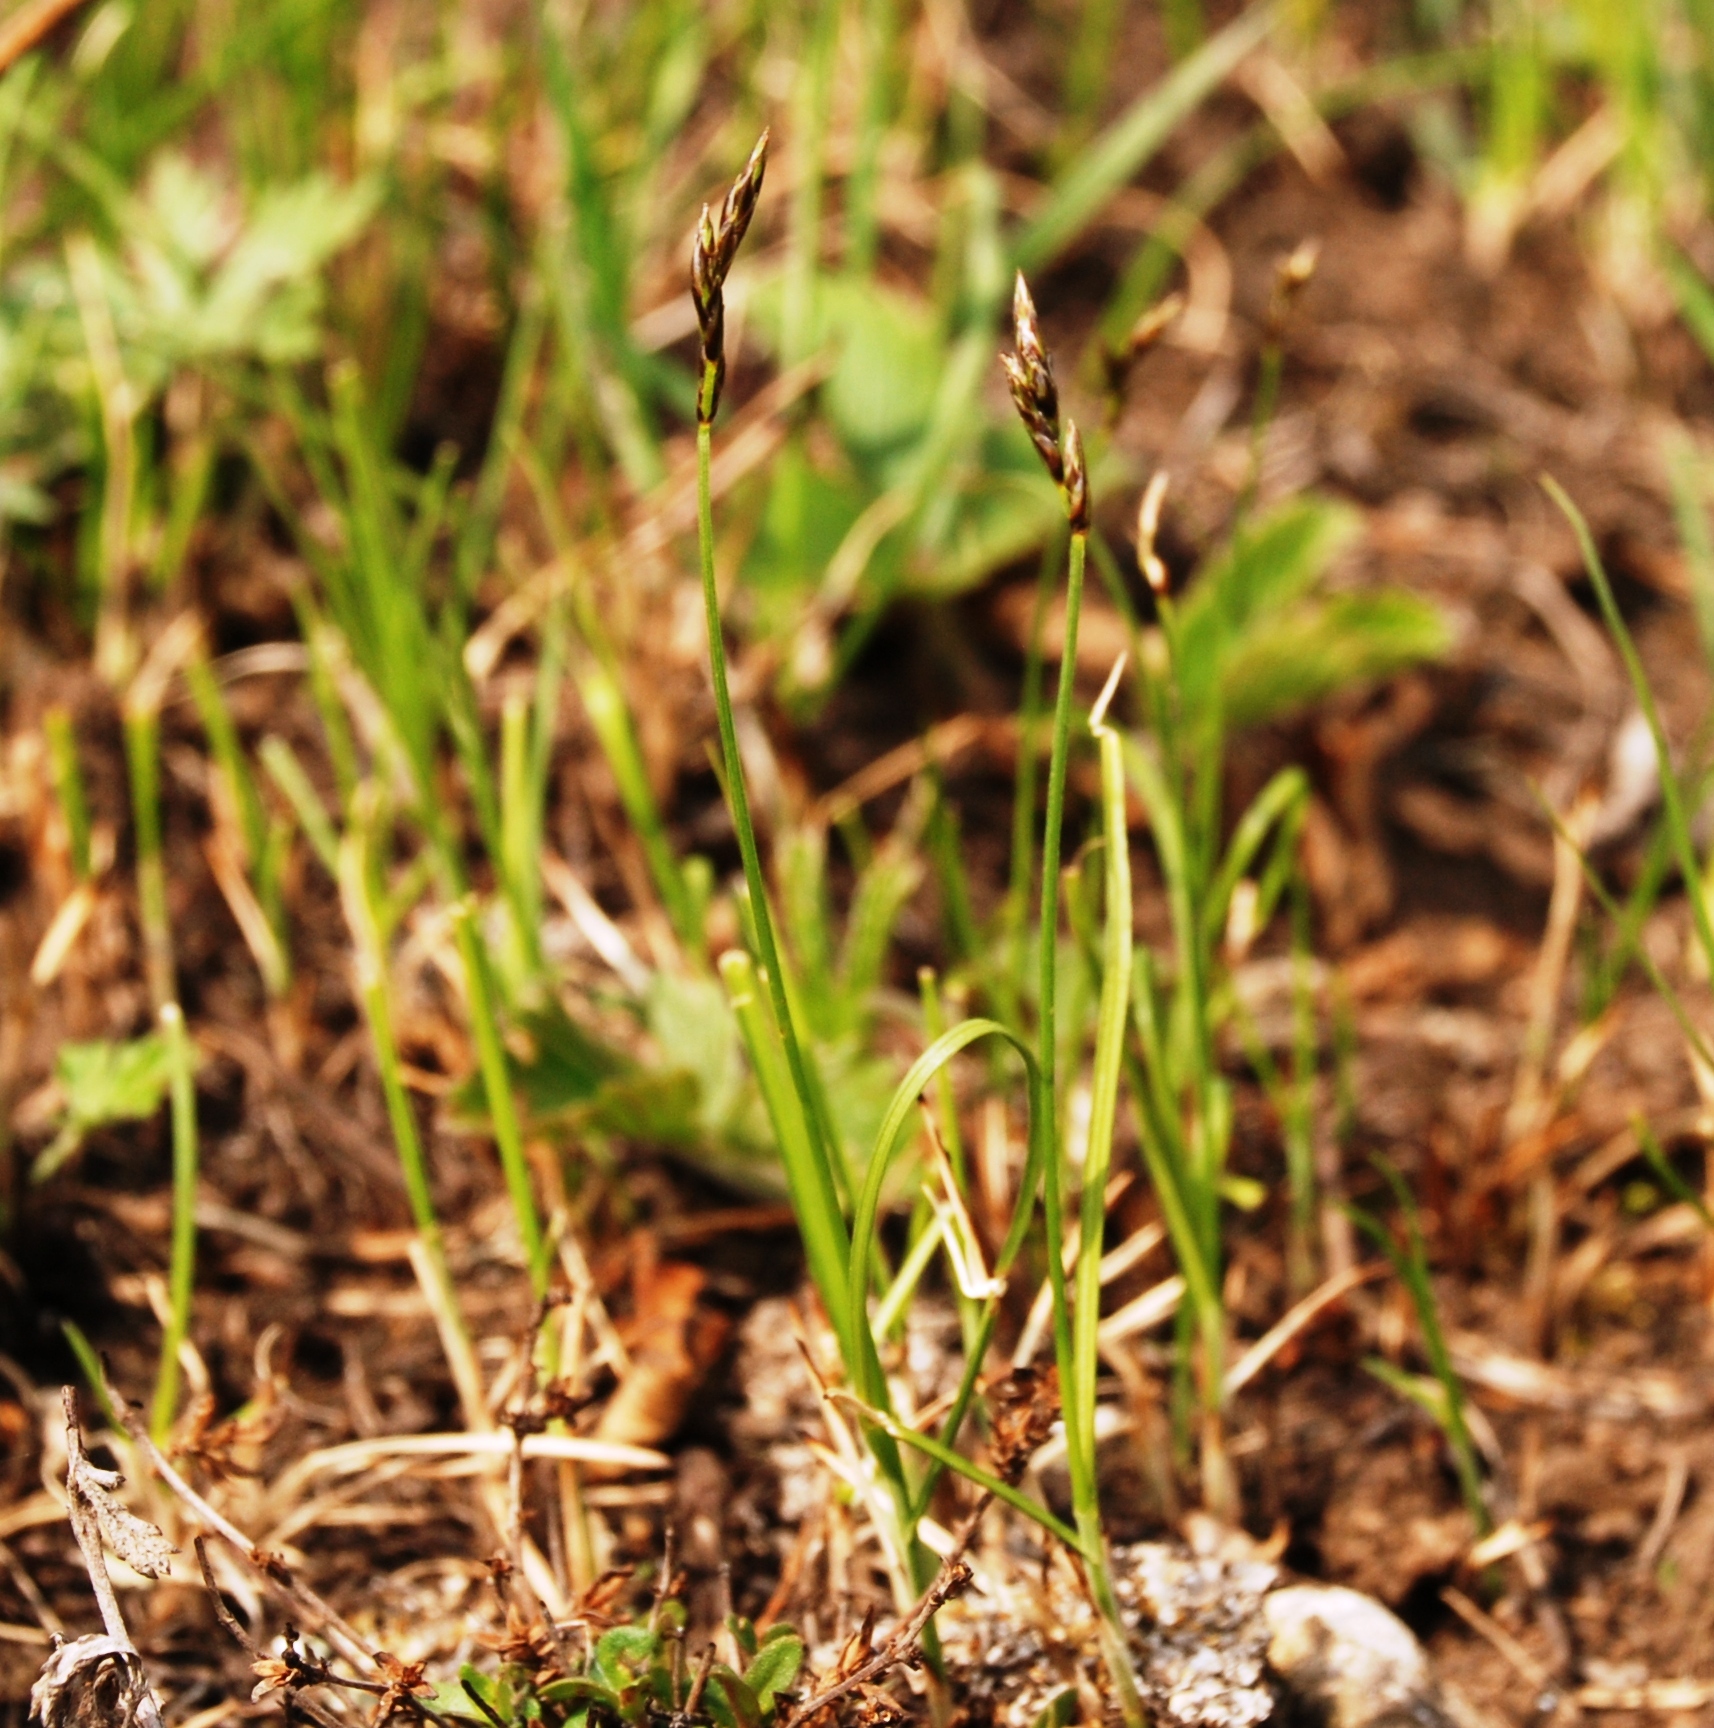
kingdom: Plantae
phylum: Tracheophyta
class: Liliopsida
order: Poales
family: Cyperaceae
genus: Carex
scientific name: Carex praecox
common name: Early sedge
